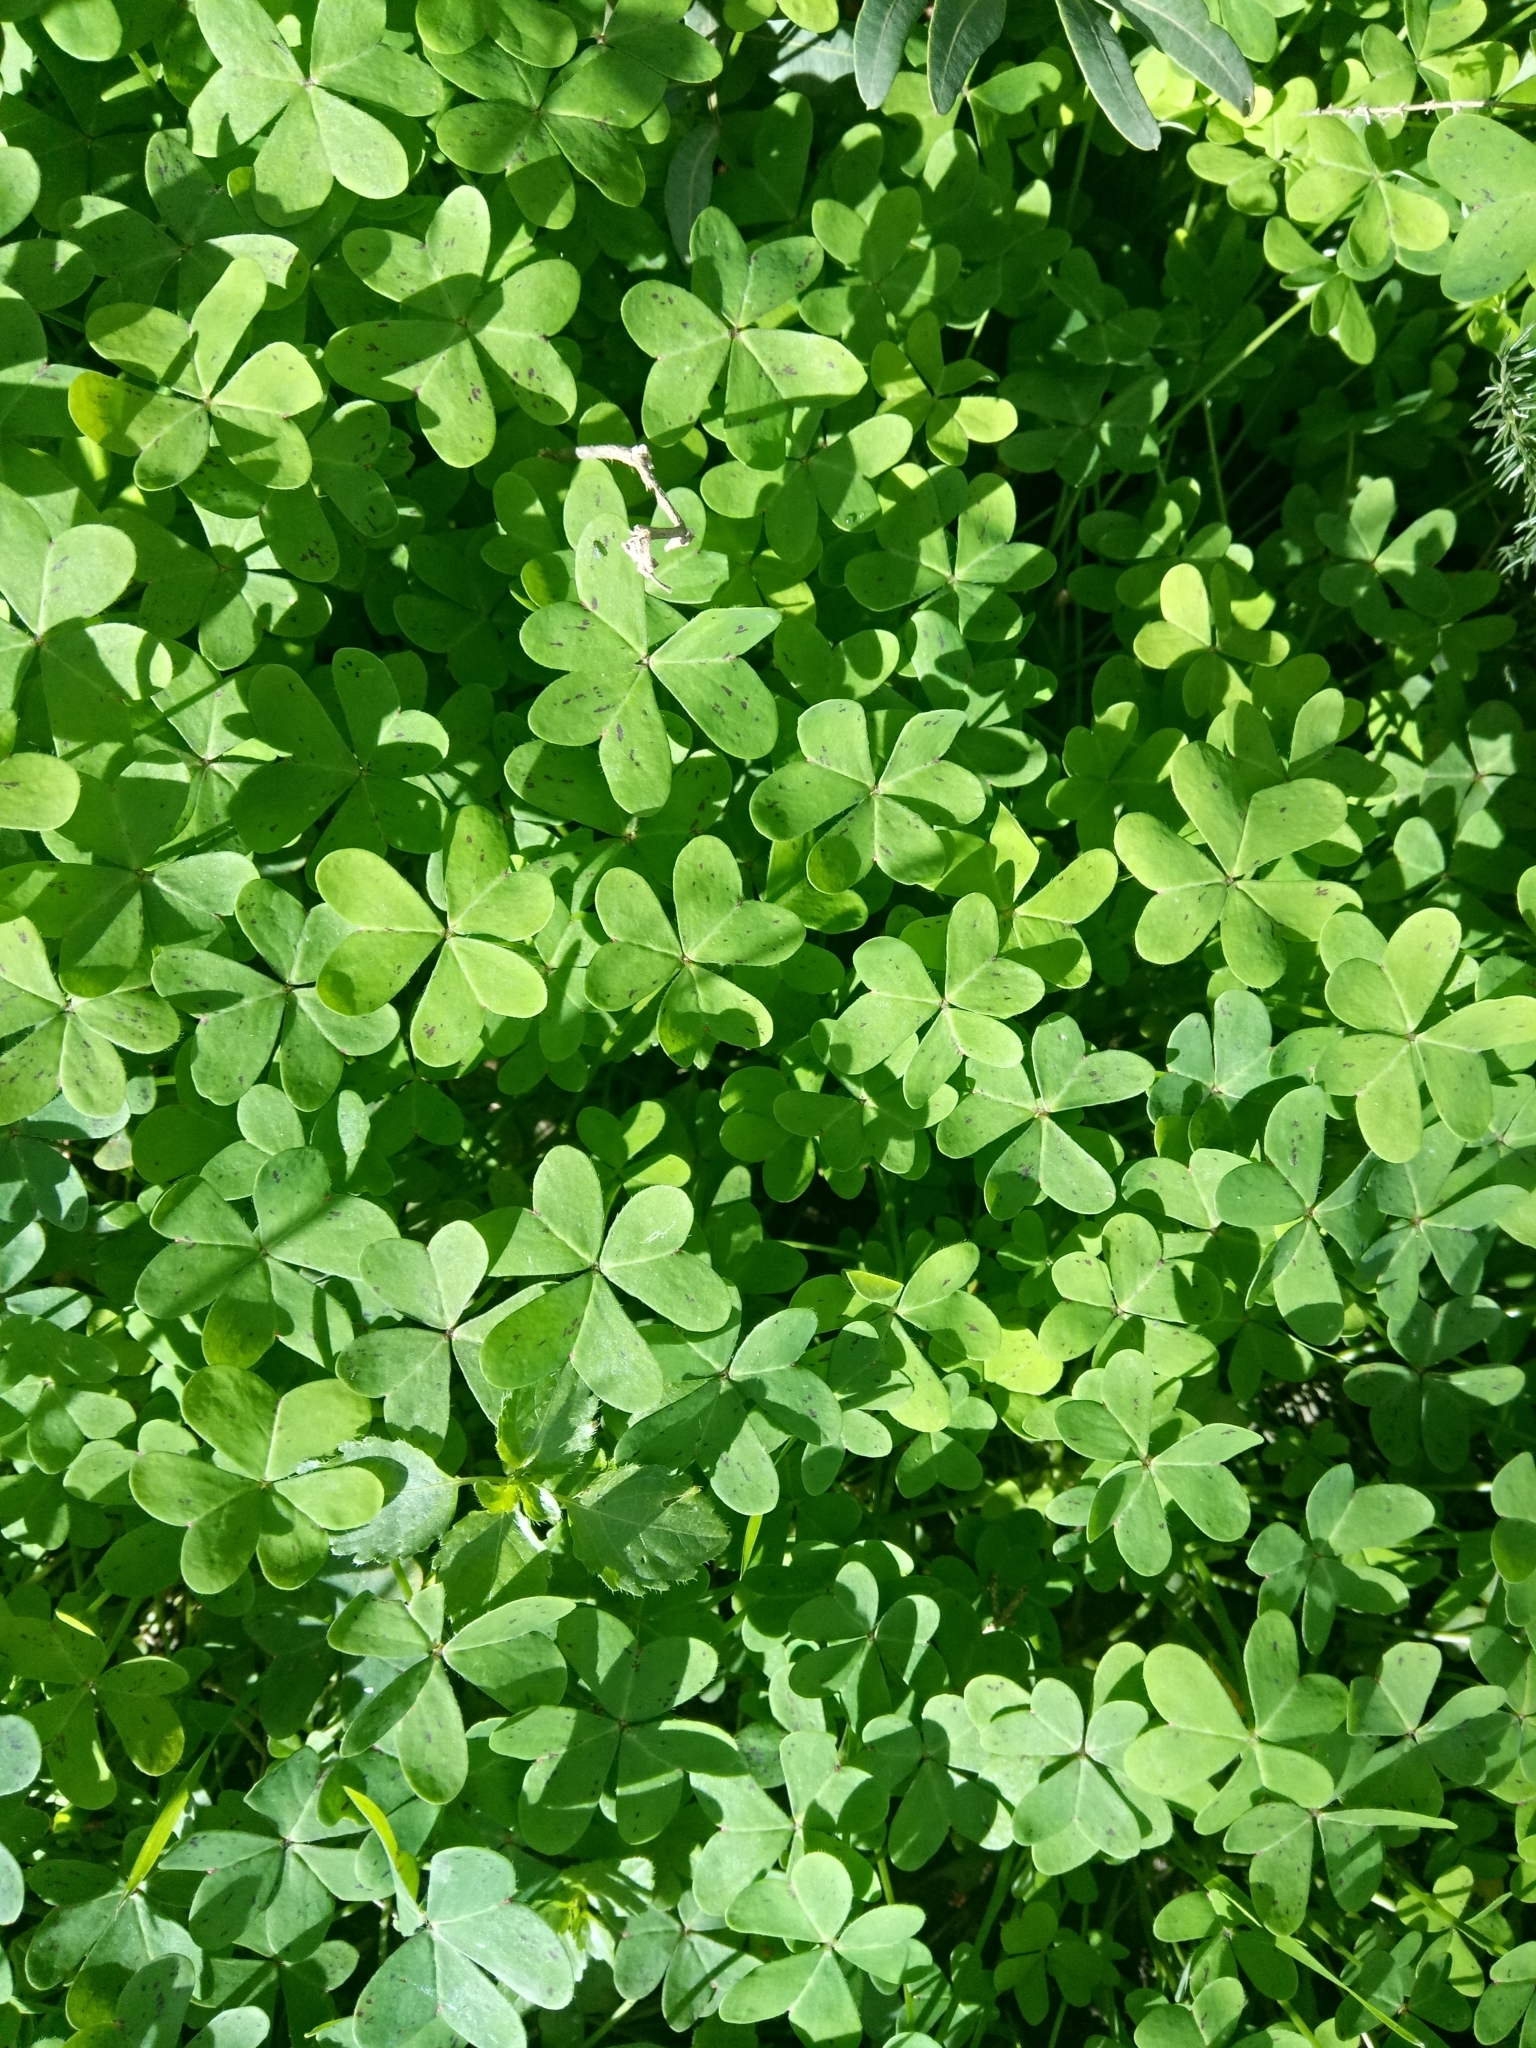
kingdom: Plantae
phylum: Tracheophyta
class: Magnoliopsida
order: Oxalidales
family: Oxalidaceae
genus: Oxalis
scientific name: Oxalis pes-caprae
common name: Bermuda-buttercup
